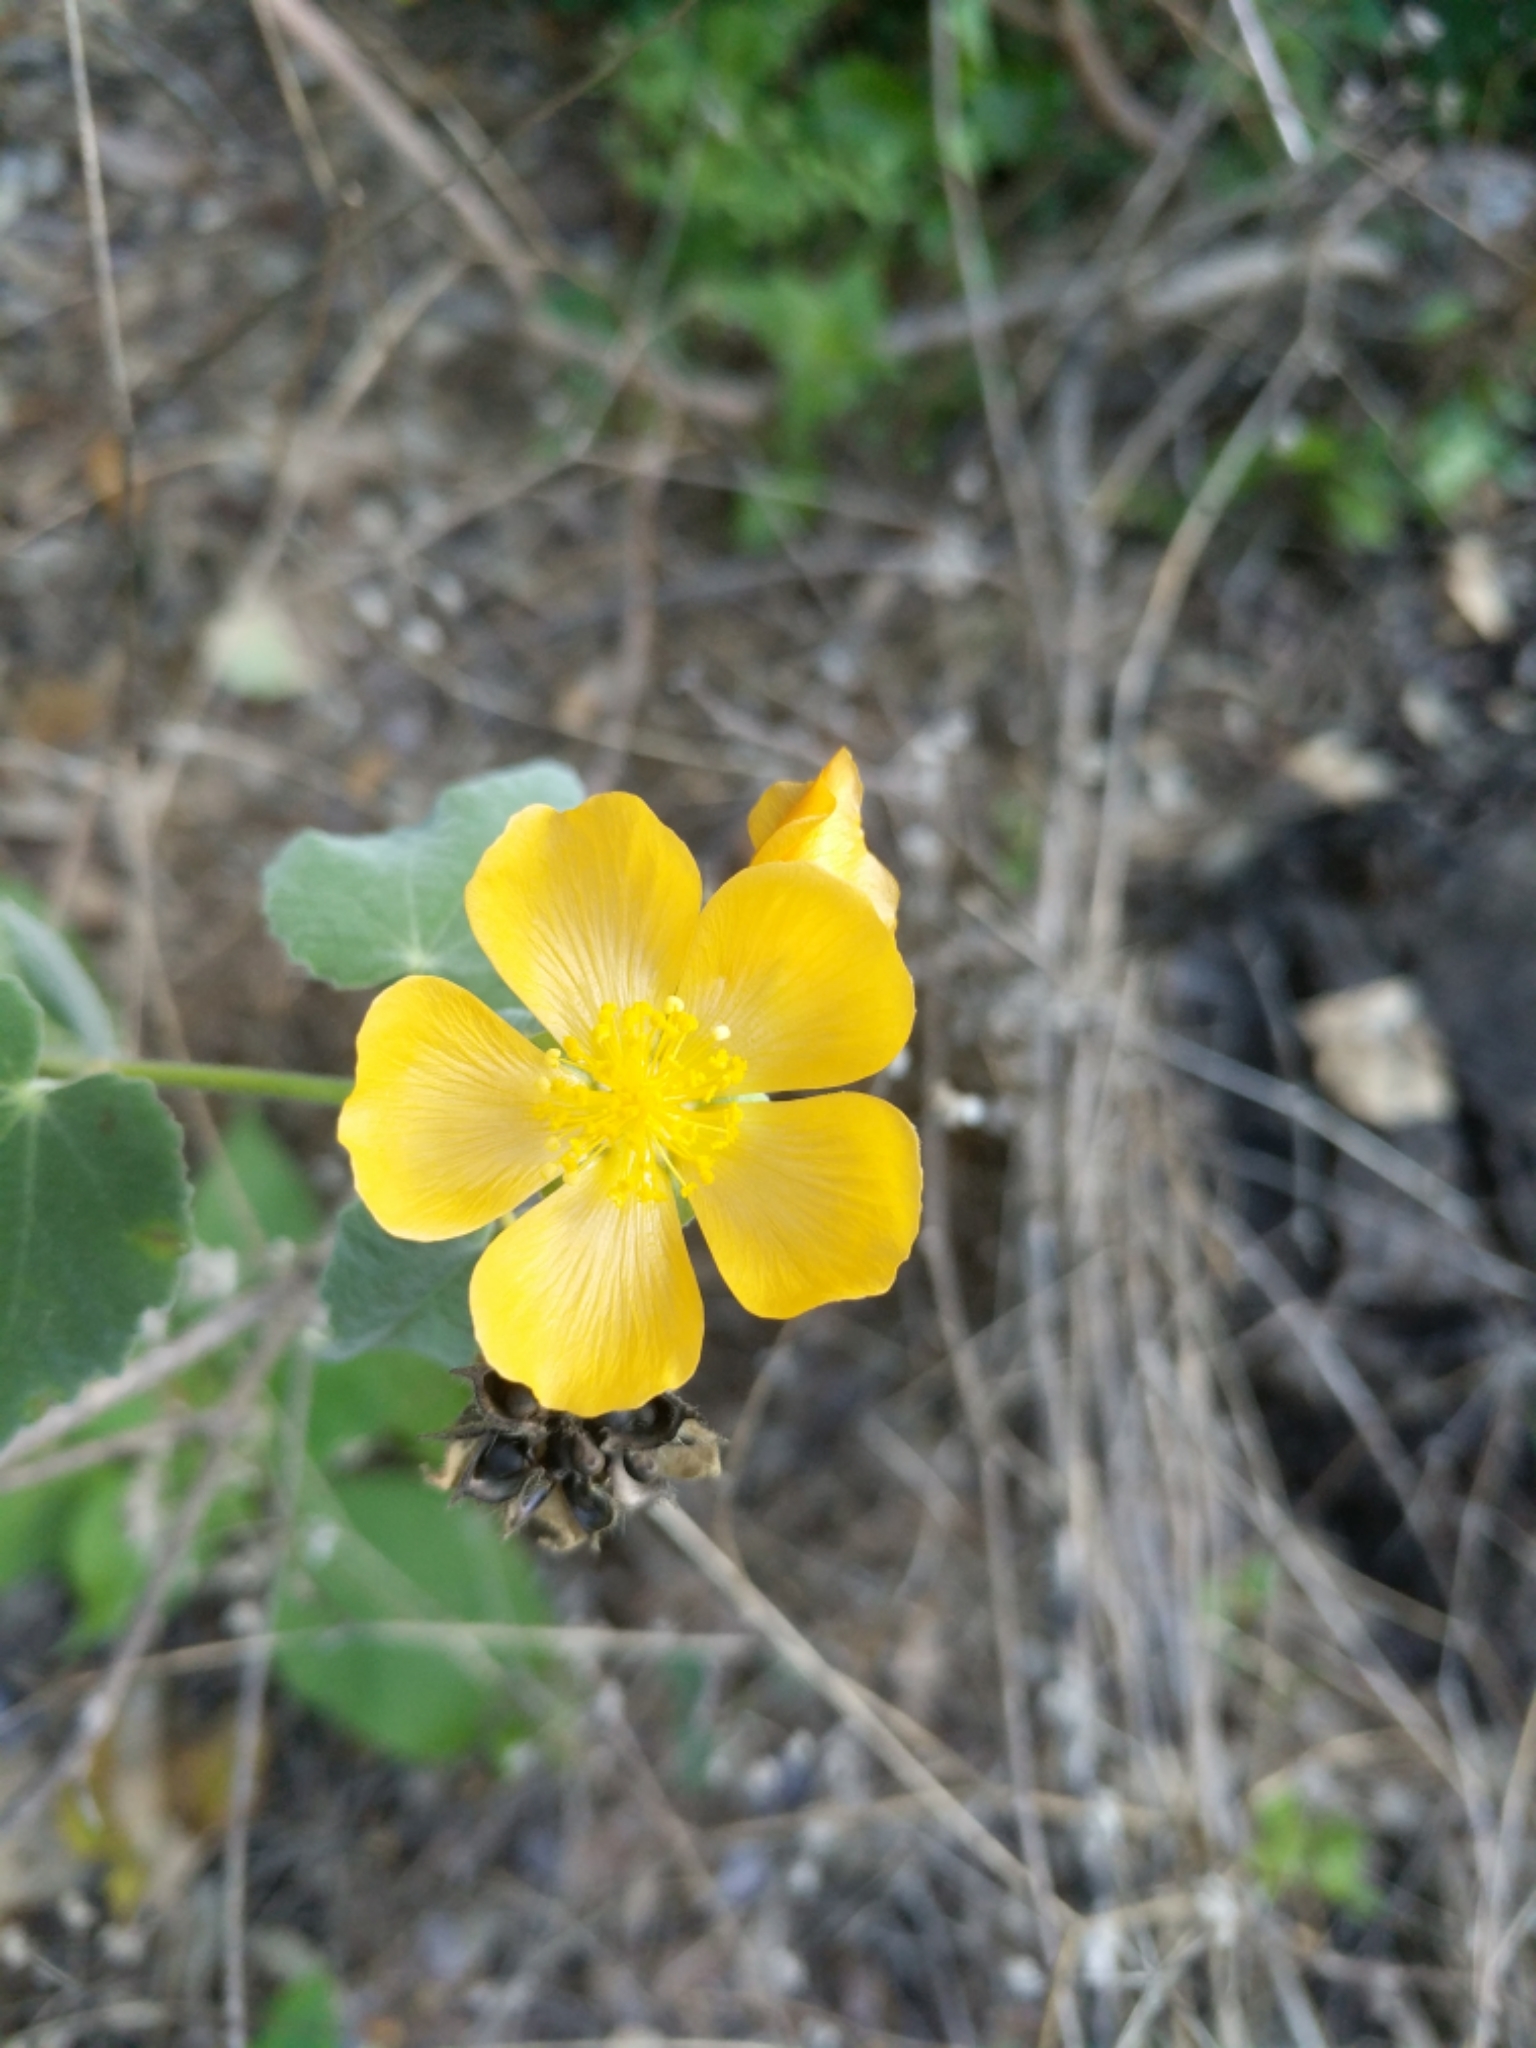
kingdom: Plantae
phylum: Tracheophyta
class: Magnoliopsida
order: Malvales
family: Malvaceae
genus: Allowissadula
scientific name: Allowissadula holosericea
